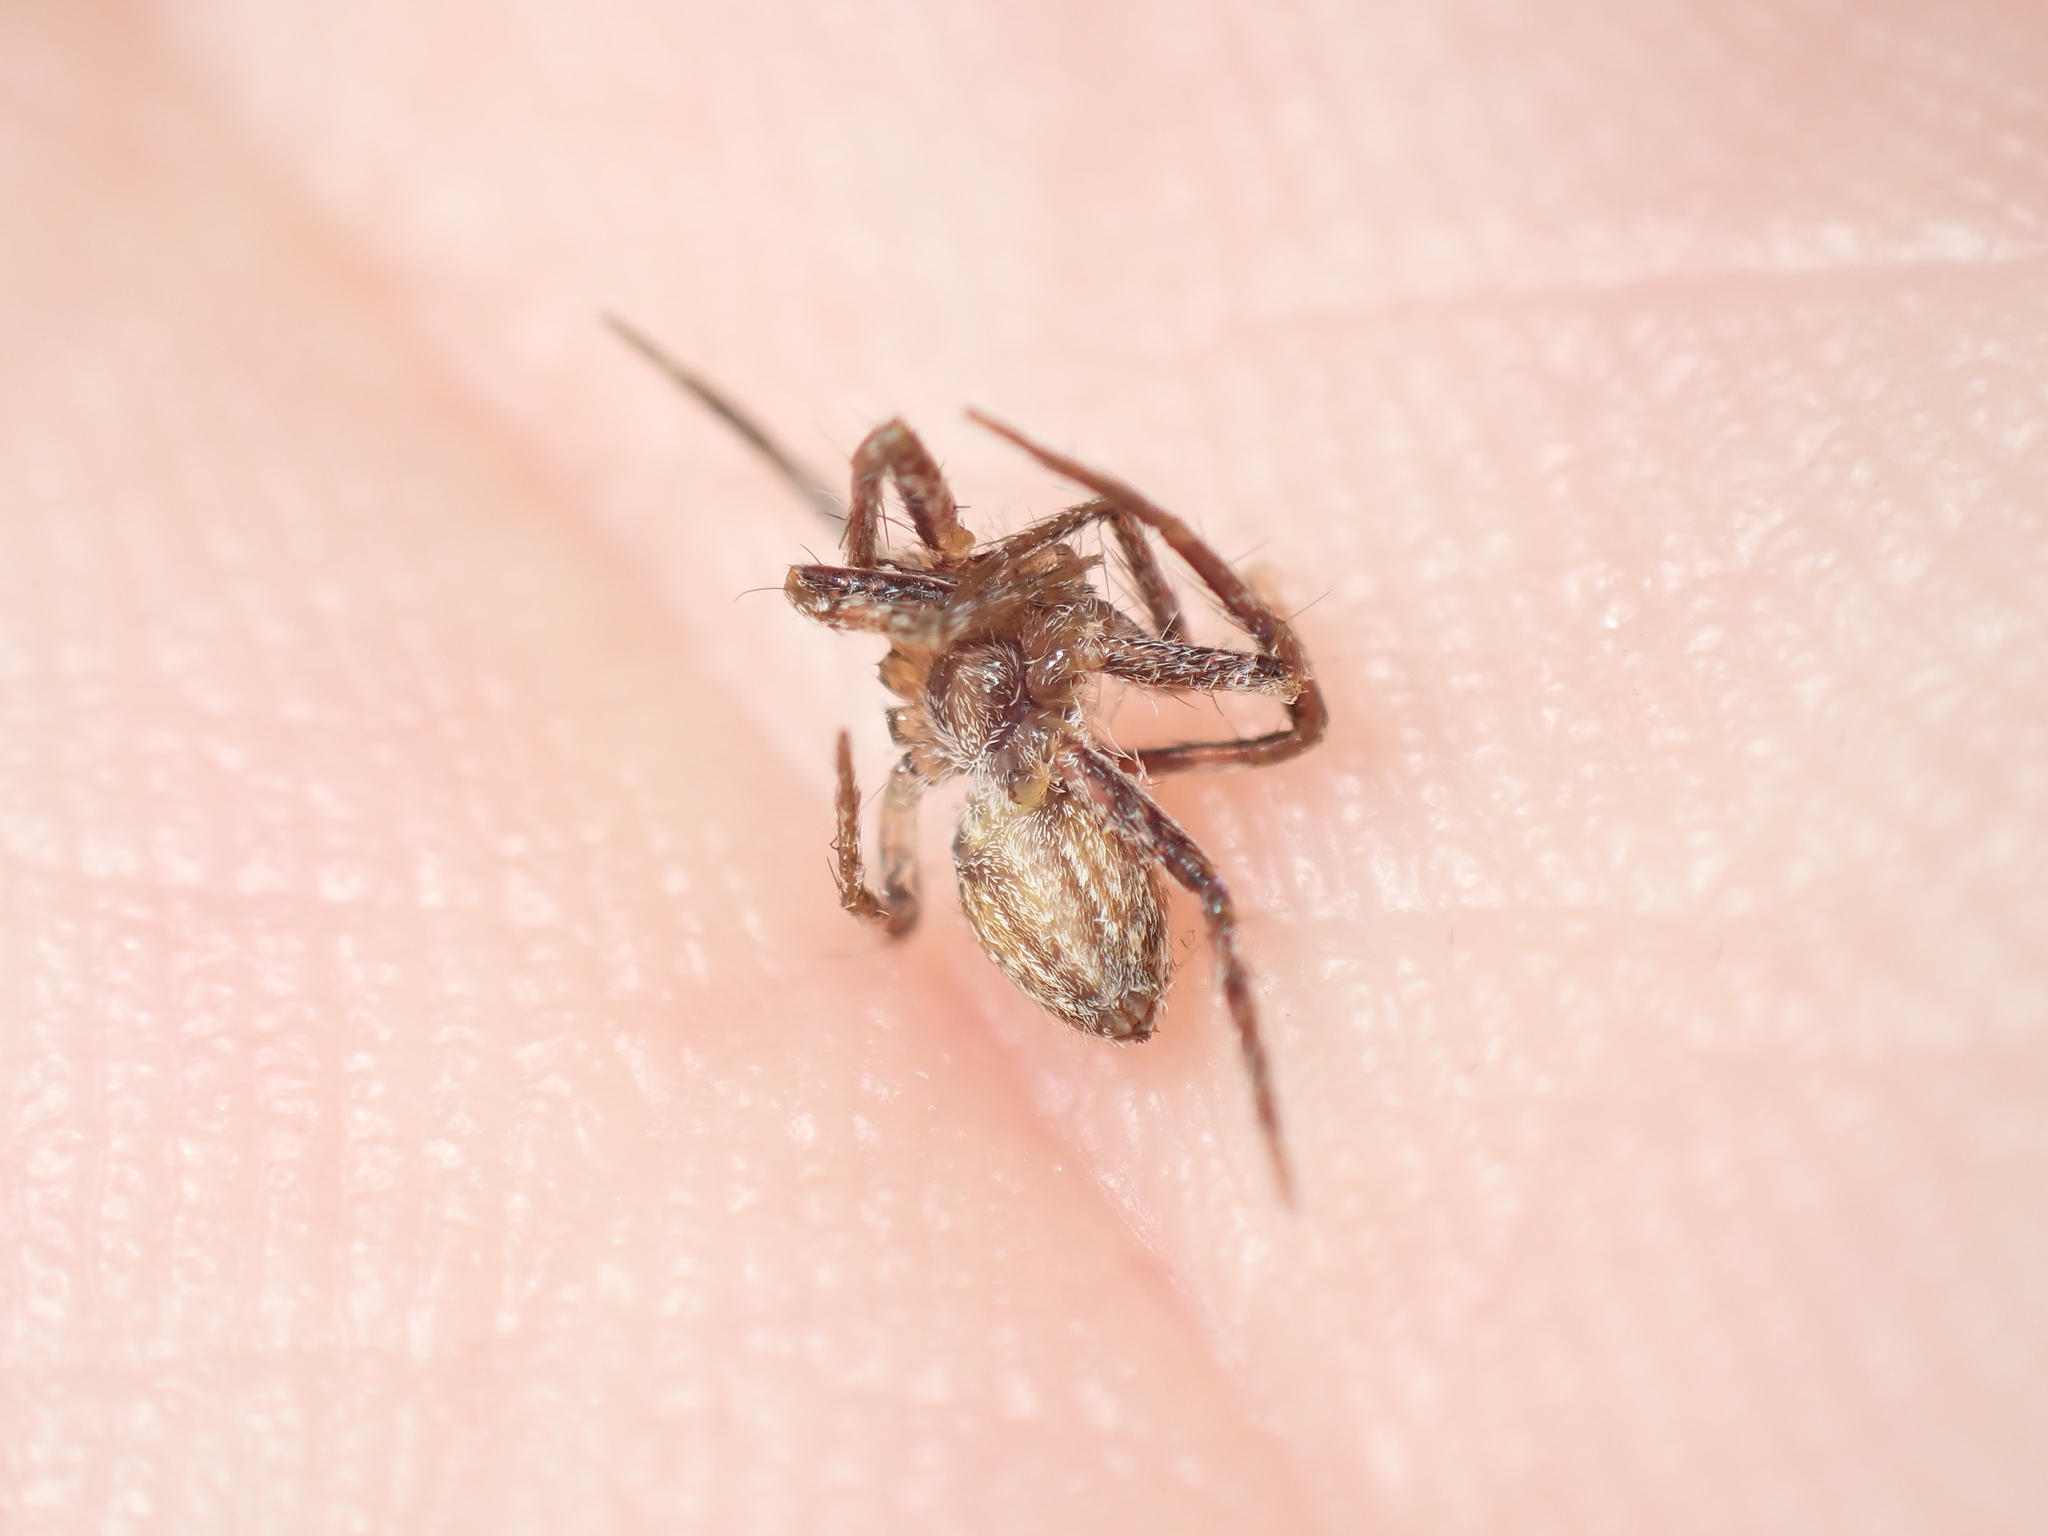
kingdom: Animalia
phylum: Arthropoda
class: Arachnida
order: Araneae
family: Pisauridae
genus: Pisaura
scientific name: Pisaura mirabilis
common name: Tent spider
